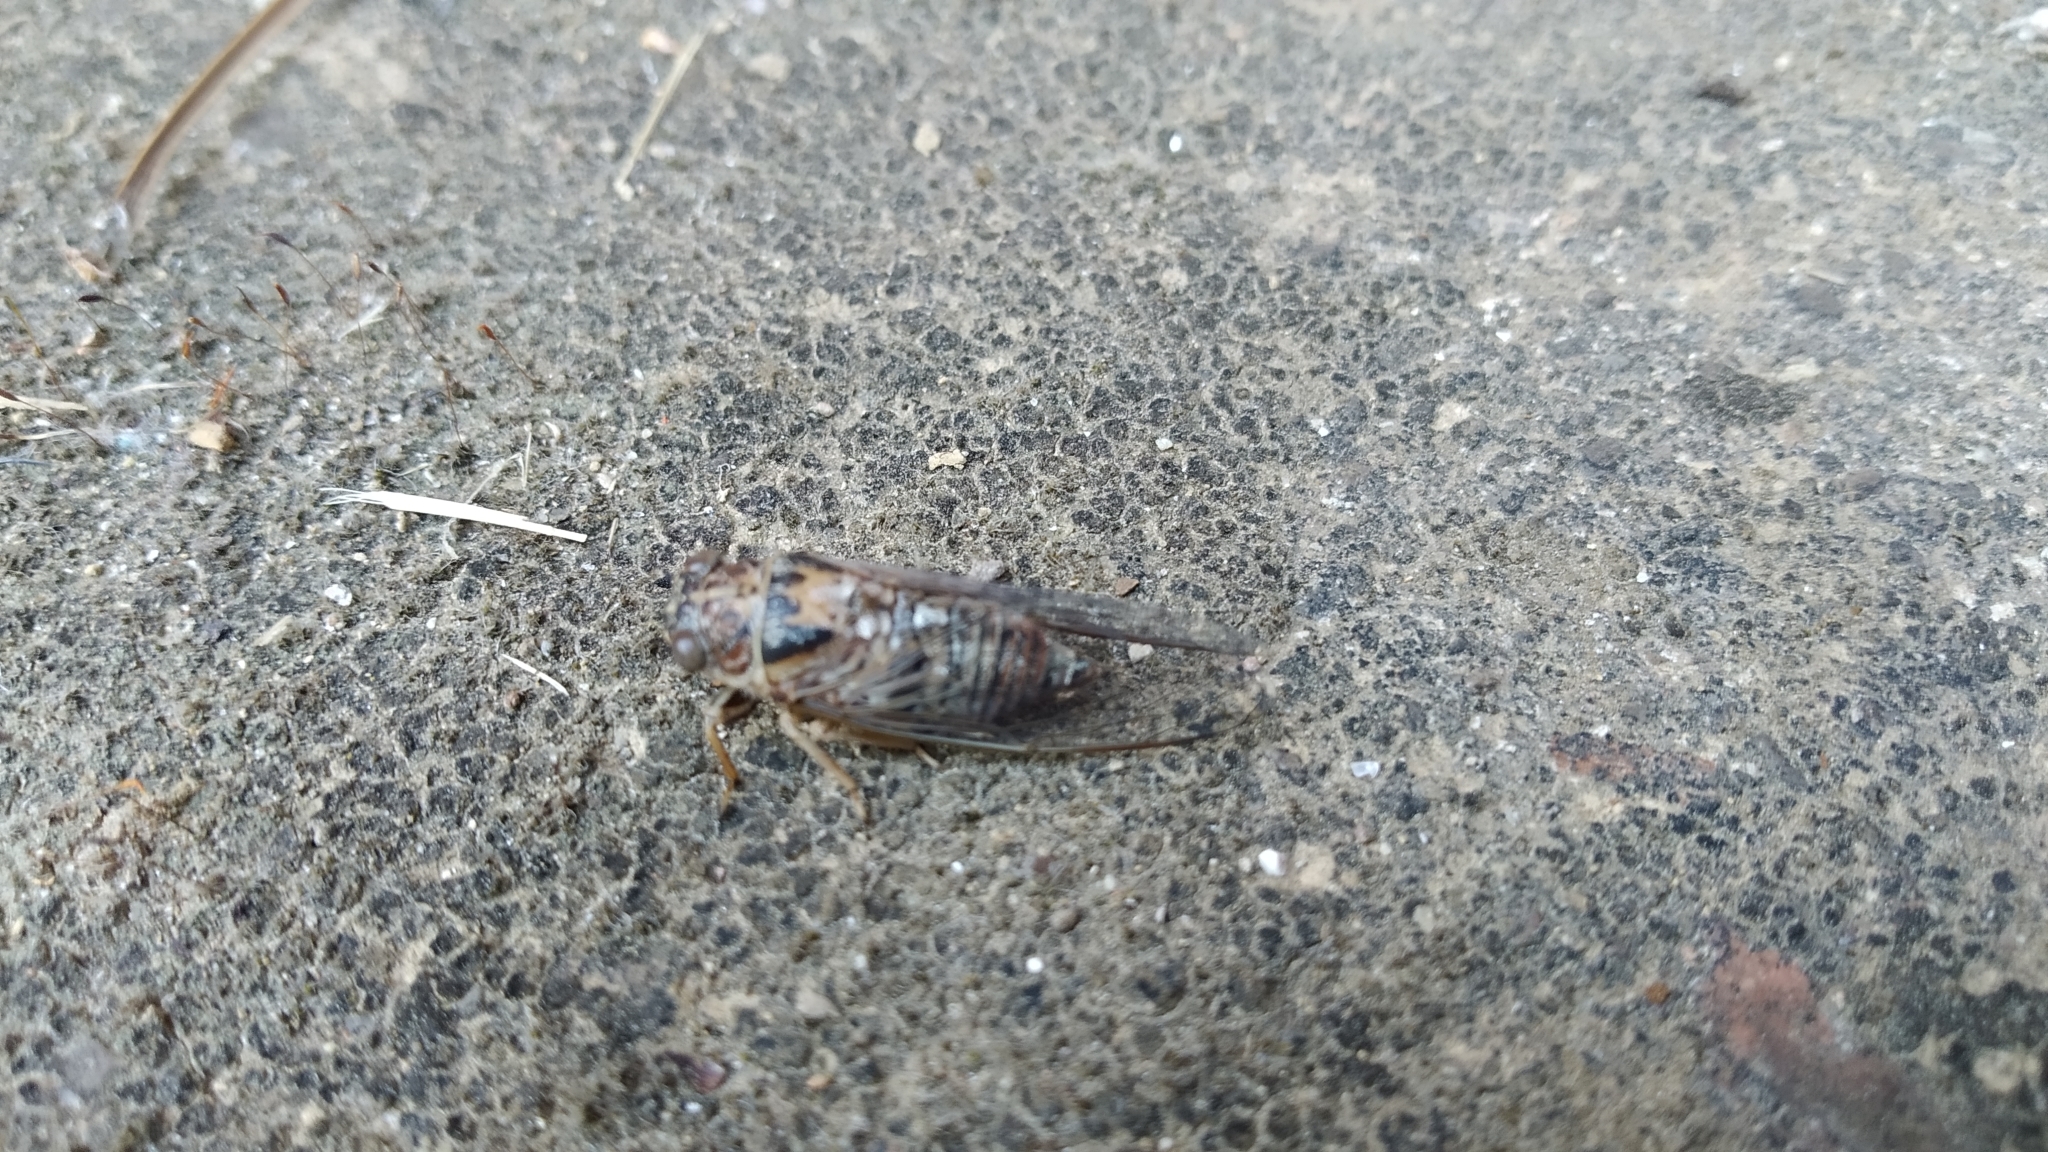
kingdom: Animalia
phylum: Arthropoda
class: Insecta
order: Hemiptera
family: Cicadidae
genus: Tettigettalna
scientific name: Tettigettalna argentata
